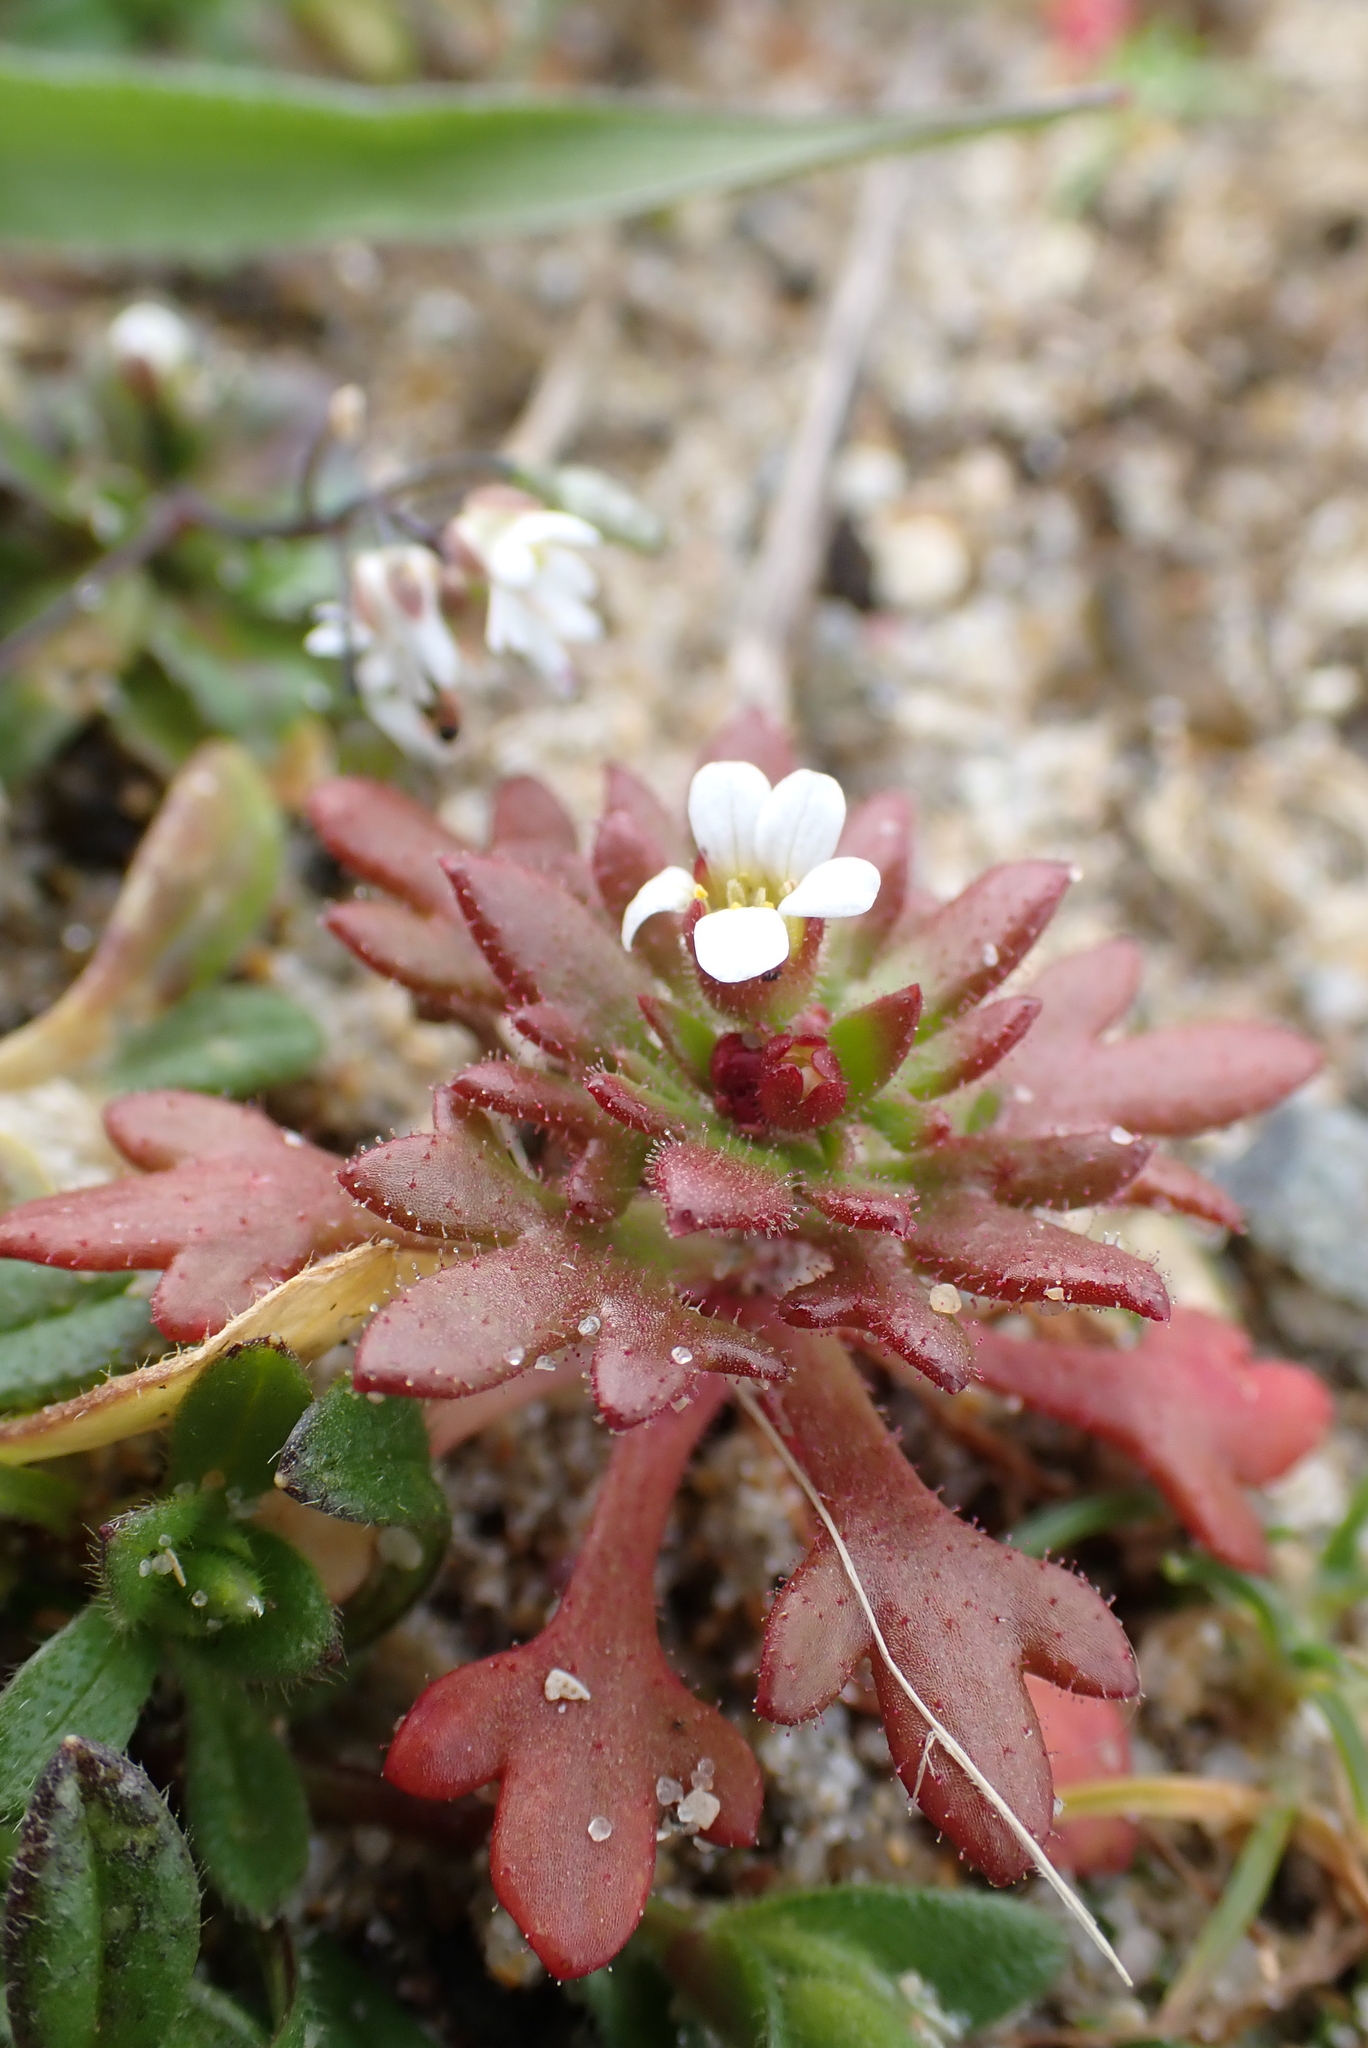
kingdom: Plantae
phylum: Tracheophyta
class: Magnoliopsida
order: Saxifragales
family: Saxifragaceae
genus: Saxifraga
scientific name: Saxifraga tridactylites
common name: Rue-leaved saxifrage
